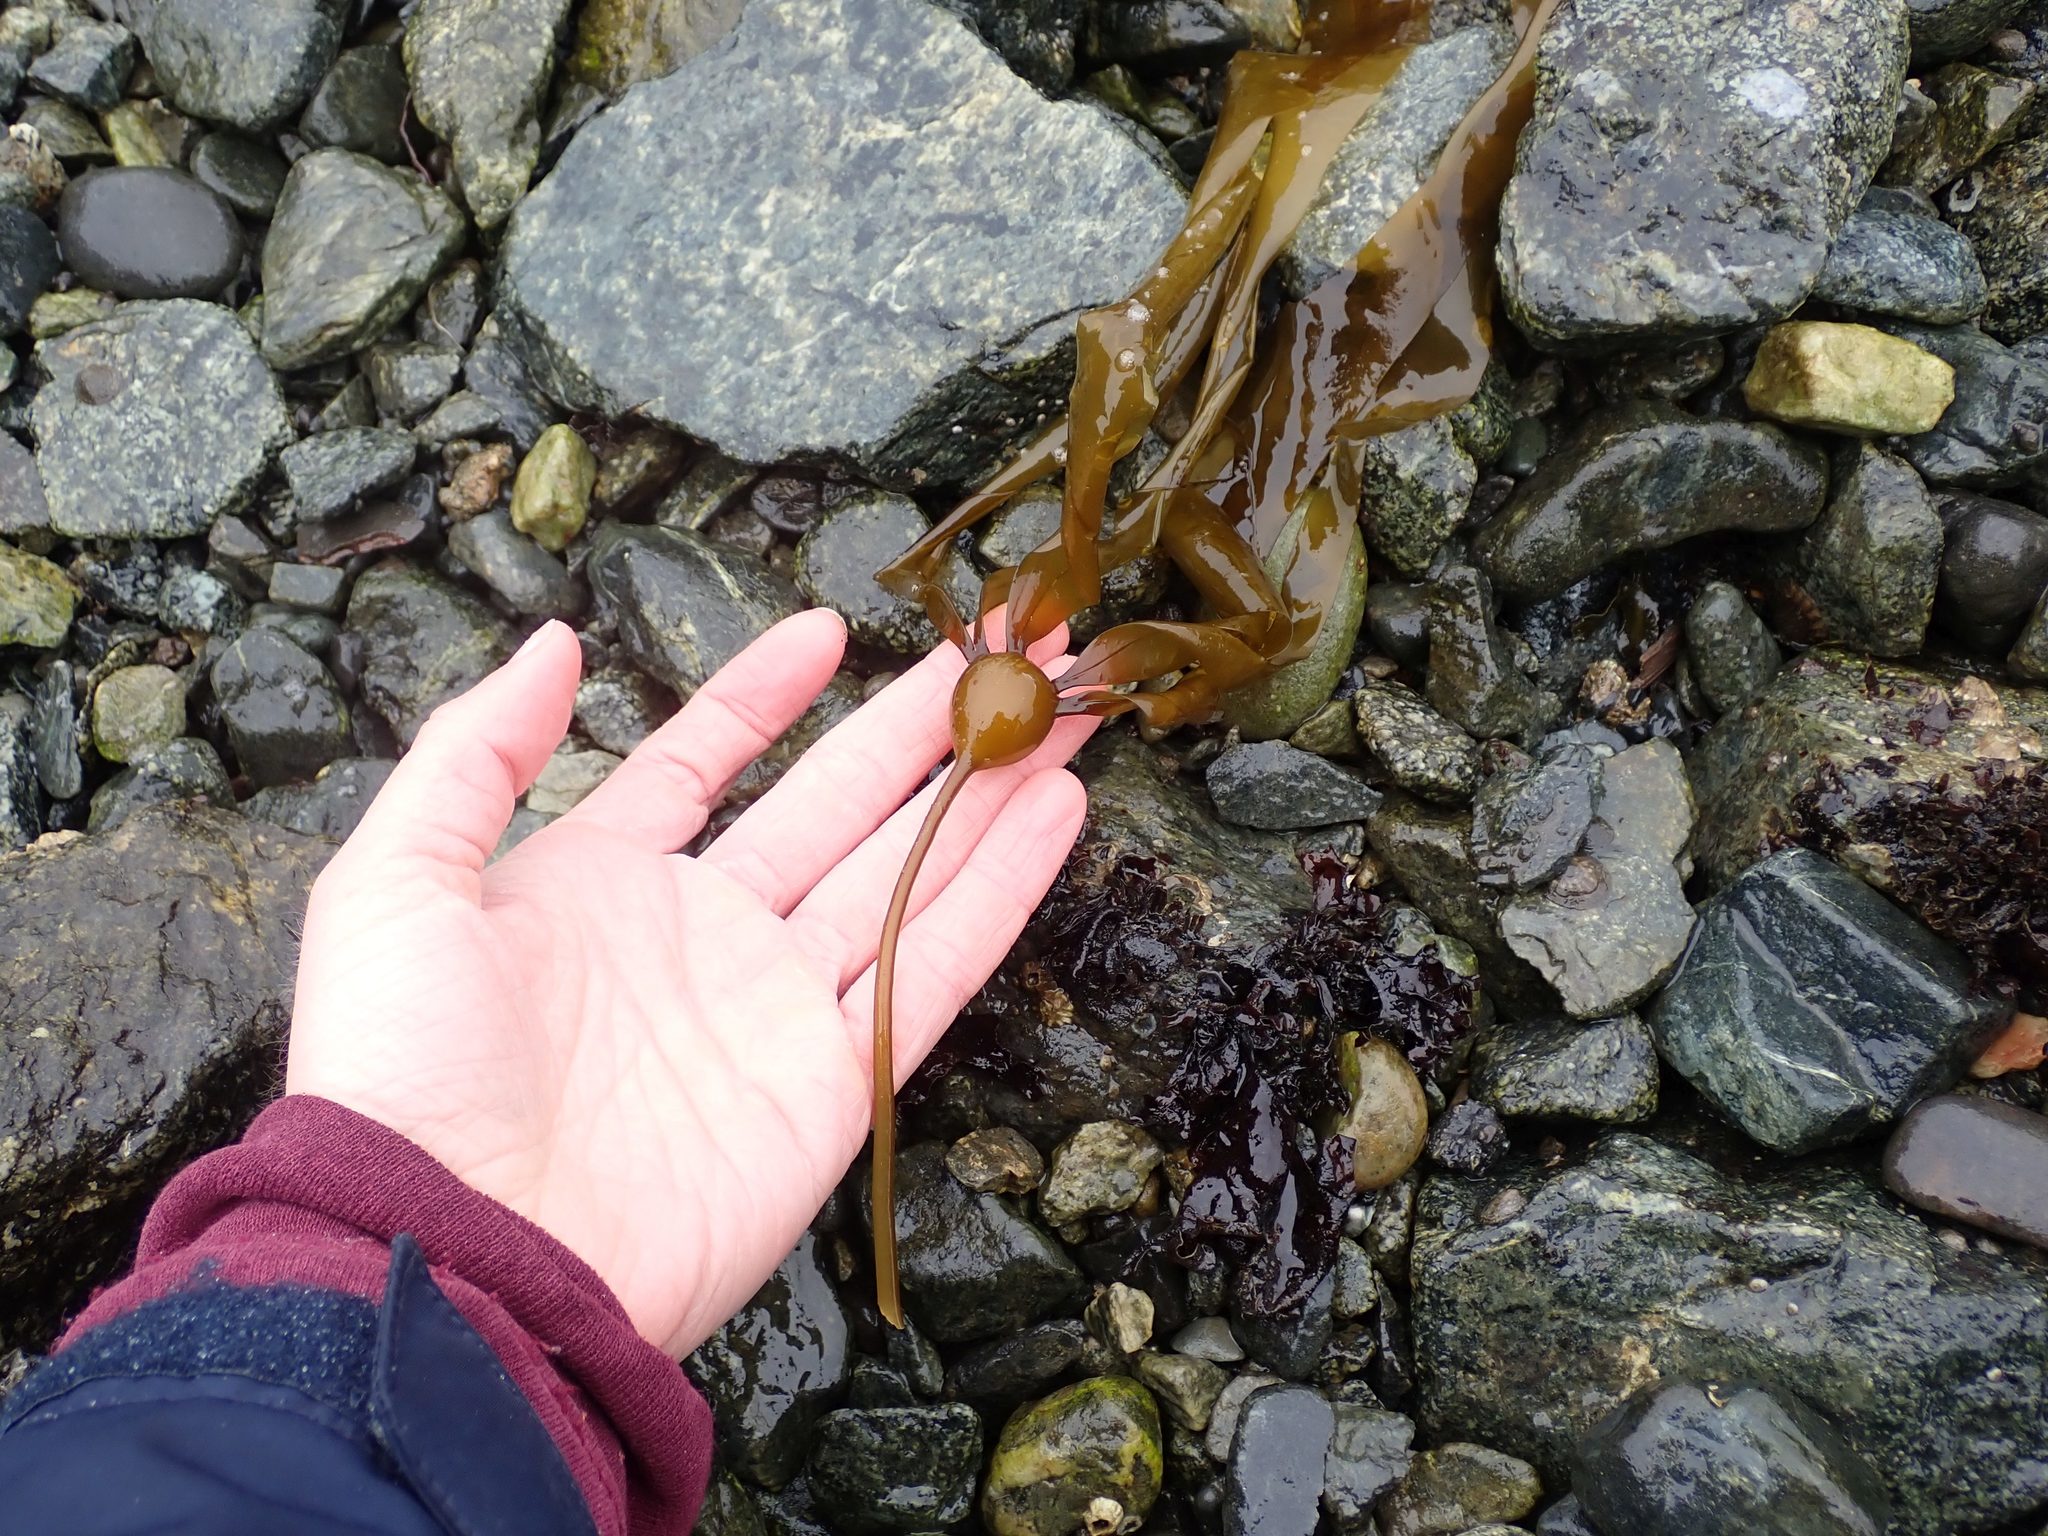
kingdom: Chromista
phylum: Ochrophyta
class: Phaeophyceae
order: Laminariales
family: Laminariaceae
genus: Nereocystis
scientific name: Nereocystis luetkeana
